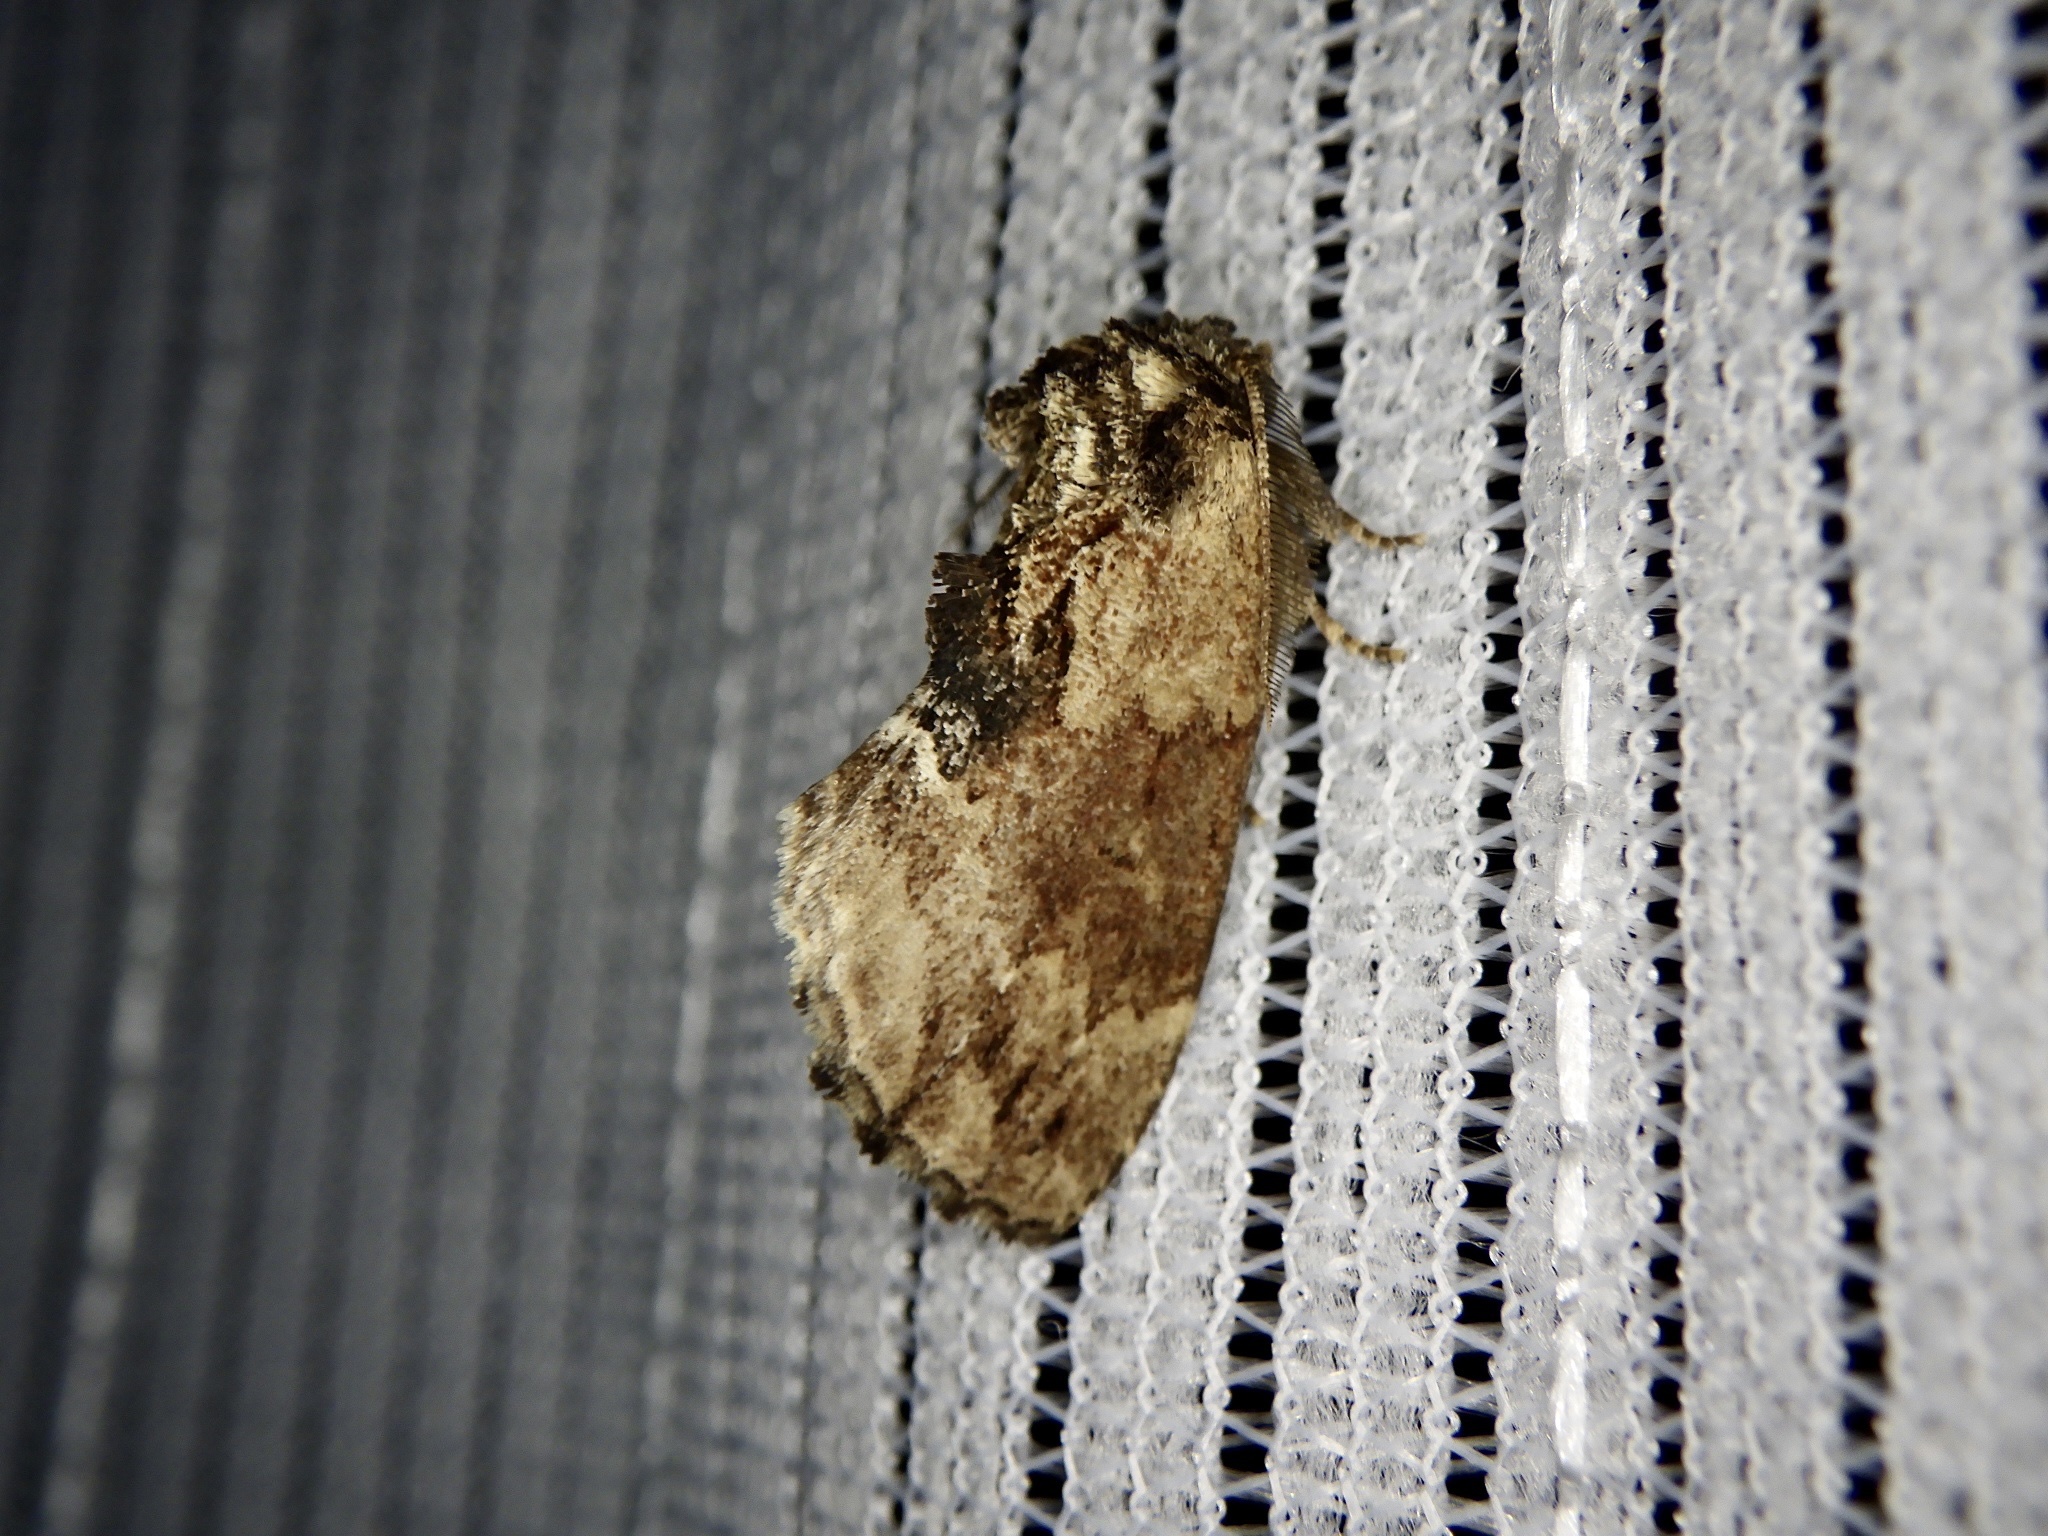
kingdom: Animalia
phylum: Arthropoda
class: Insecta
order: Lepidoptera
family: Notodontidae
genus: Lophontosia
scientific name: Lophontosia
